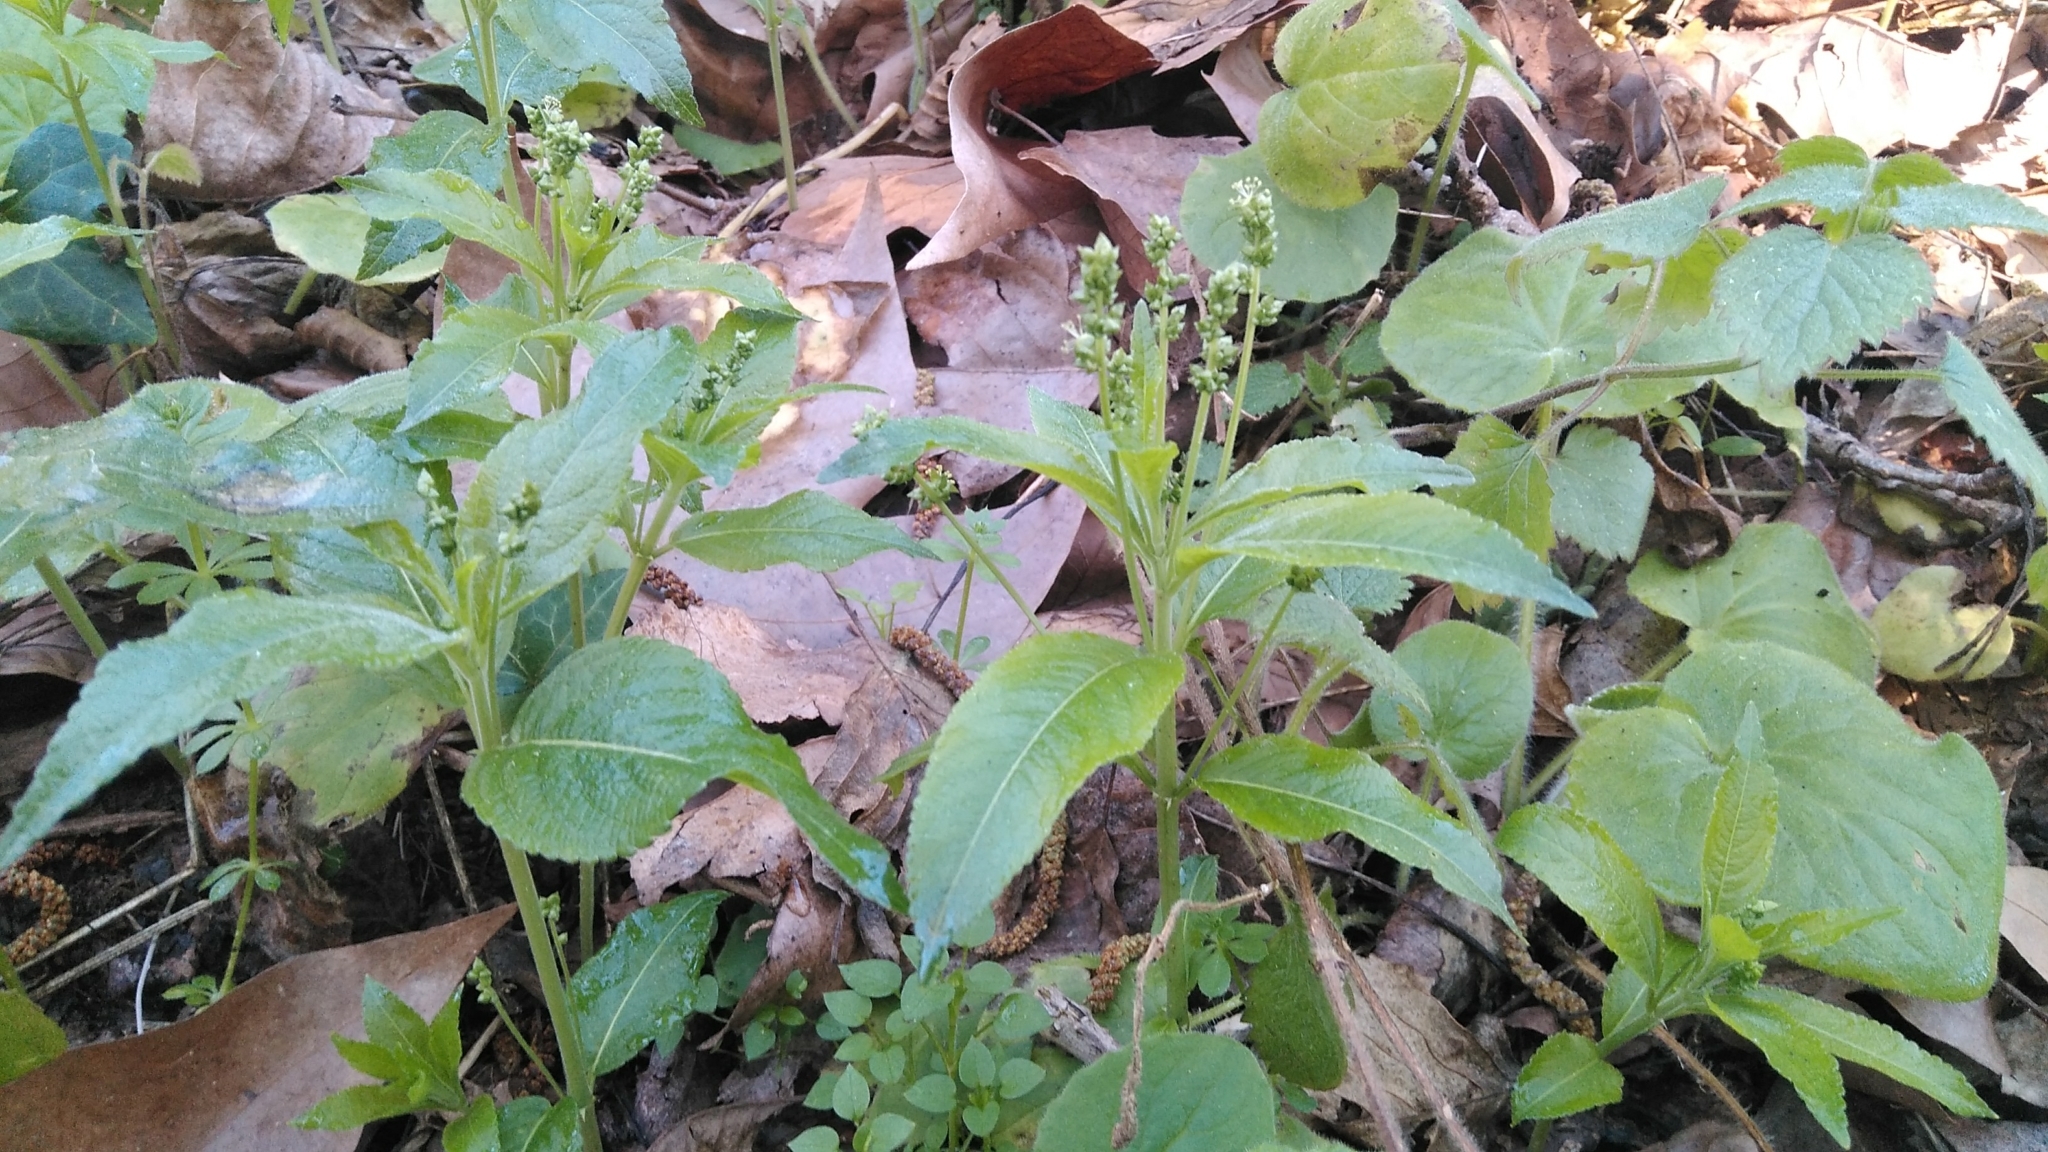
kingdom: Plantae
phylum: Tracheophyta
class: Magnoliopsida
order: Malpighiales
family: Euphorbiaceae
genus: Mercurialis
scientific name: Mercurialis perennis
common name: Dog mercury
